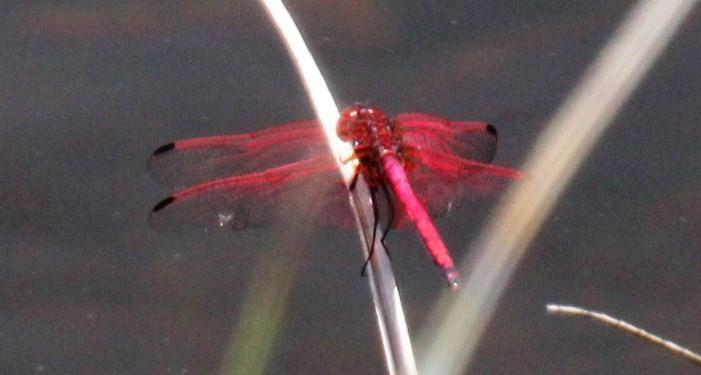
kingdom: Animalia
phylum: Arthropoda
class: Insecta
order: Odonata
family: Libellulidae
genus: Trithemis
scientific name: Trithemis arteriosa
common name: Red-veined dropwing
